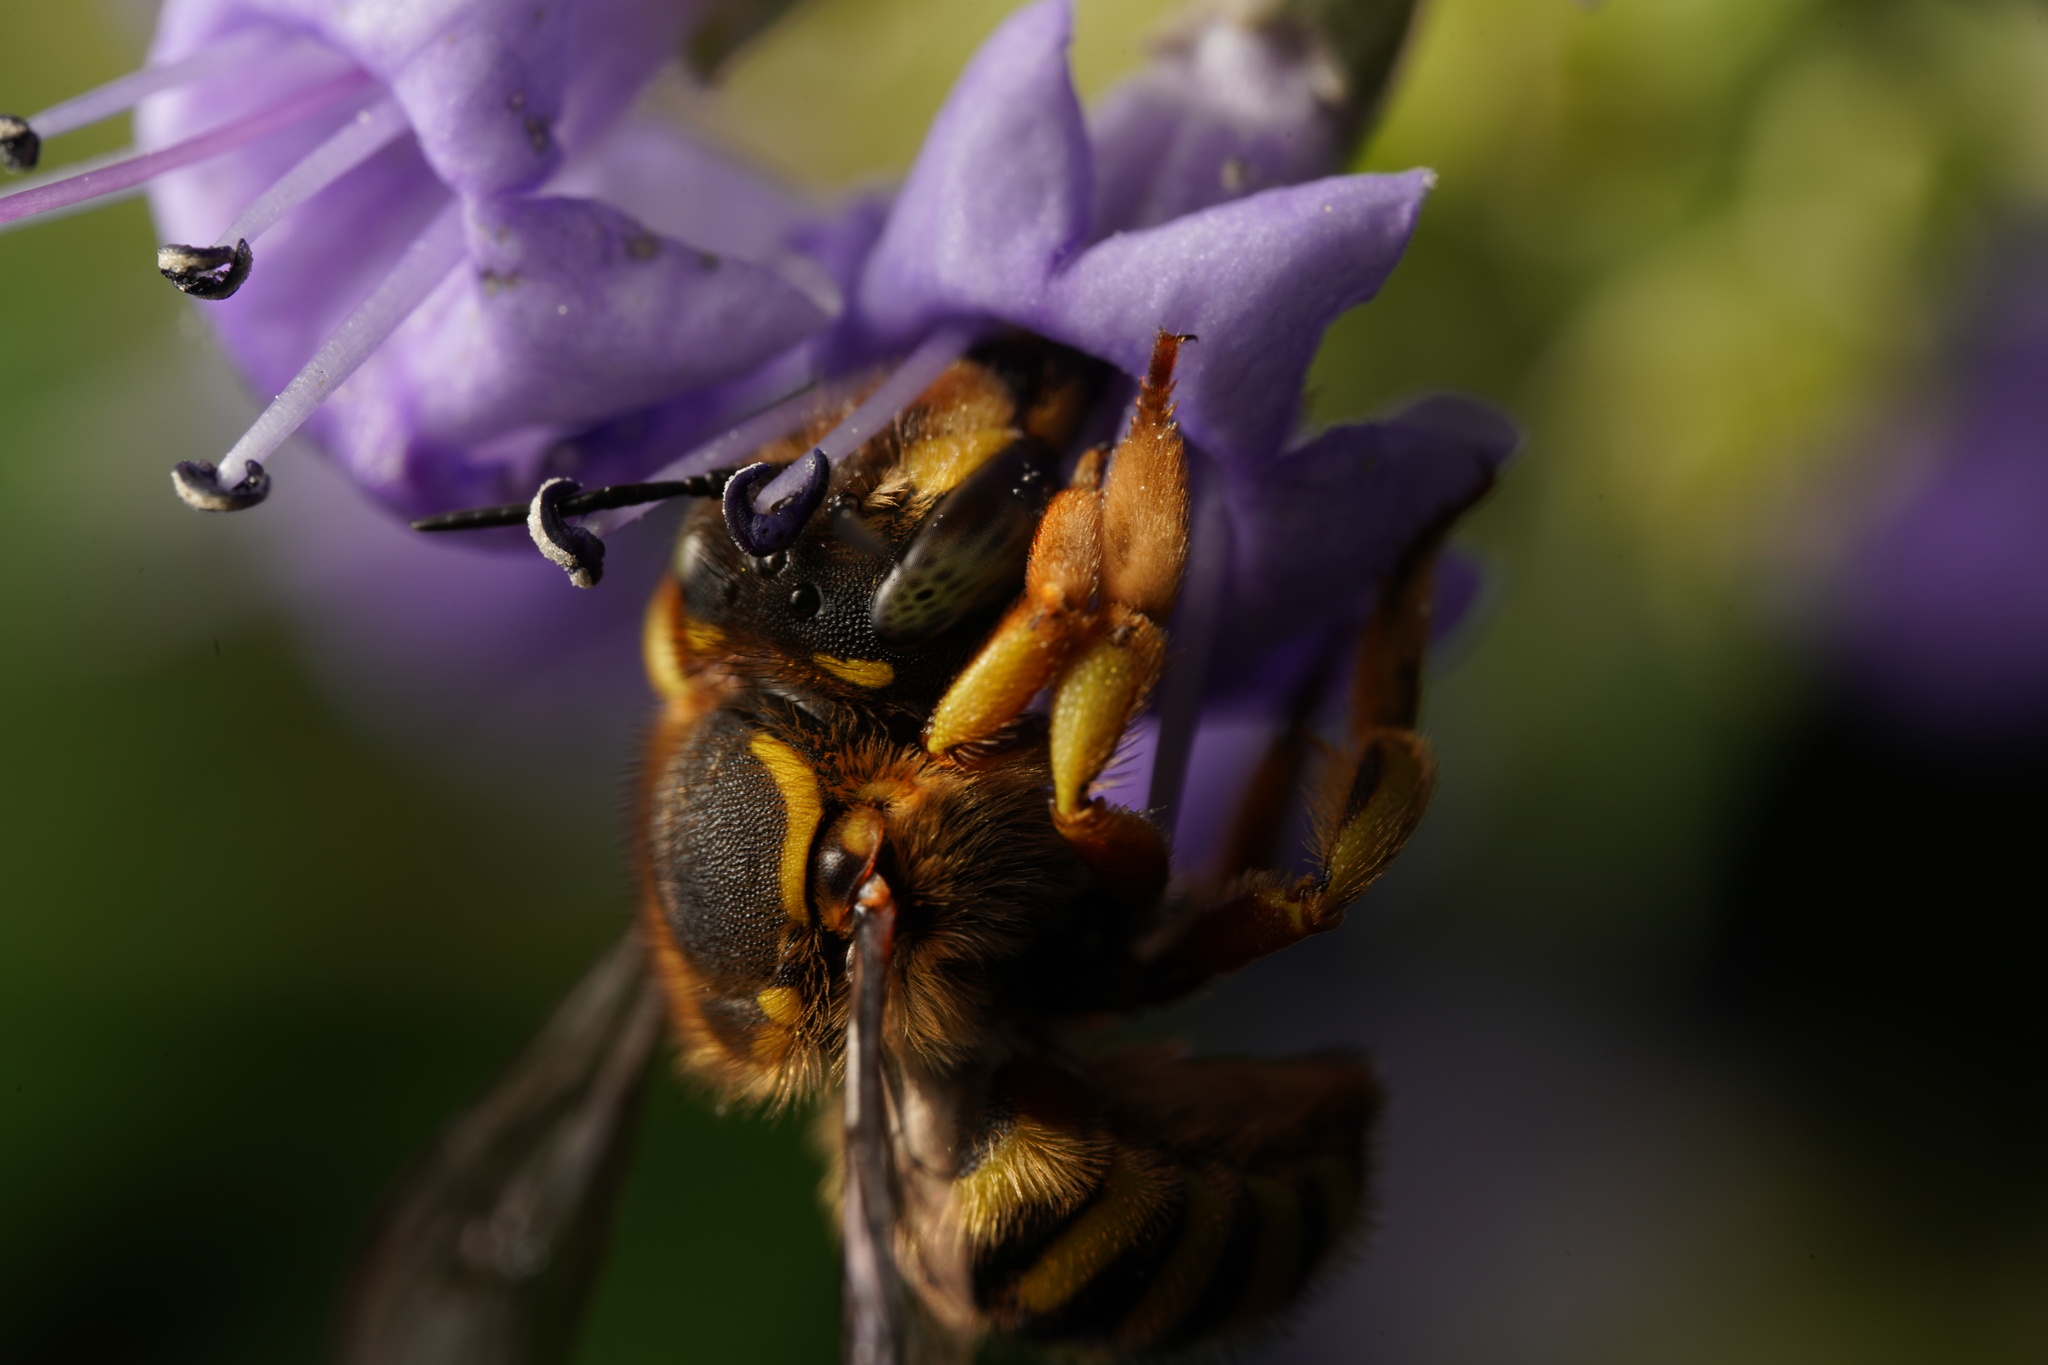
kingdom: Animalia
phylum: Arthropoda
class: Insecta
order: Hymenoptera
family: Megachilidae
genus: Anthidium
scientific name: Anthidium manicatum
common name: Wool carder bee
